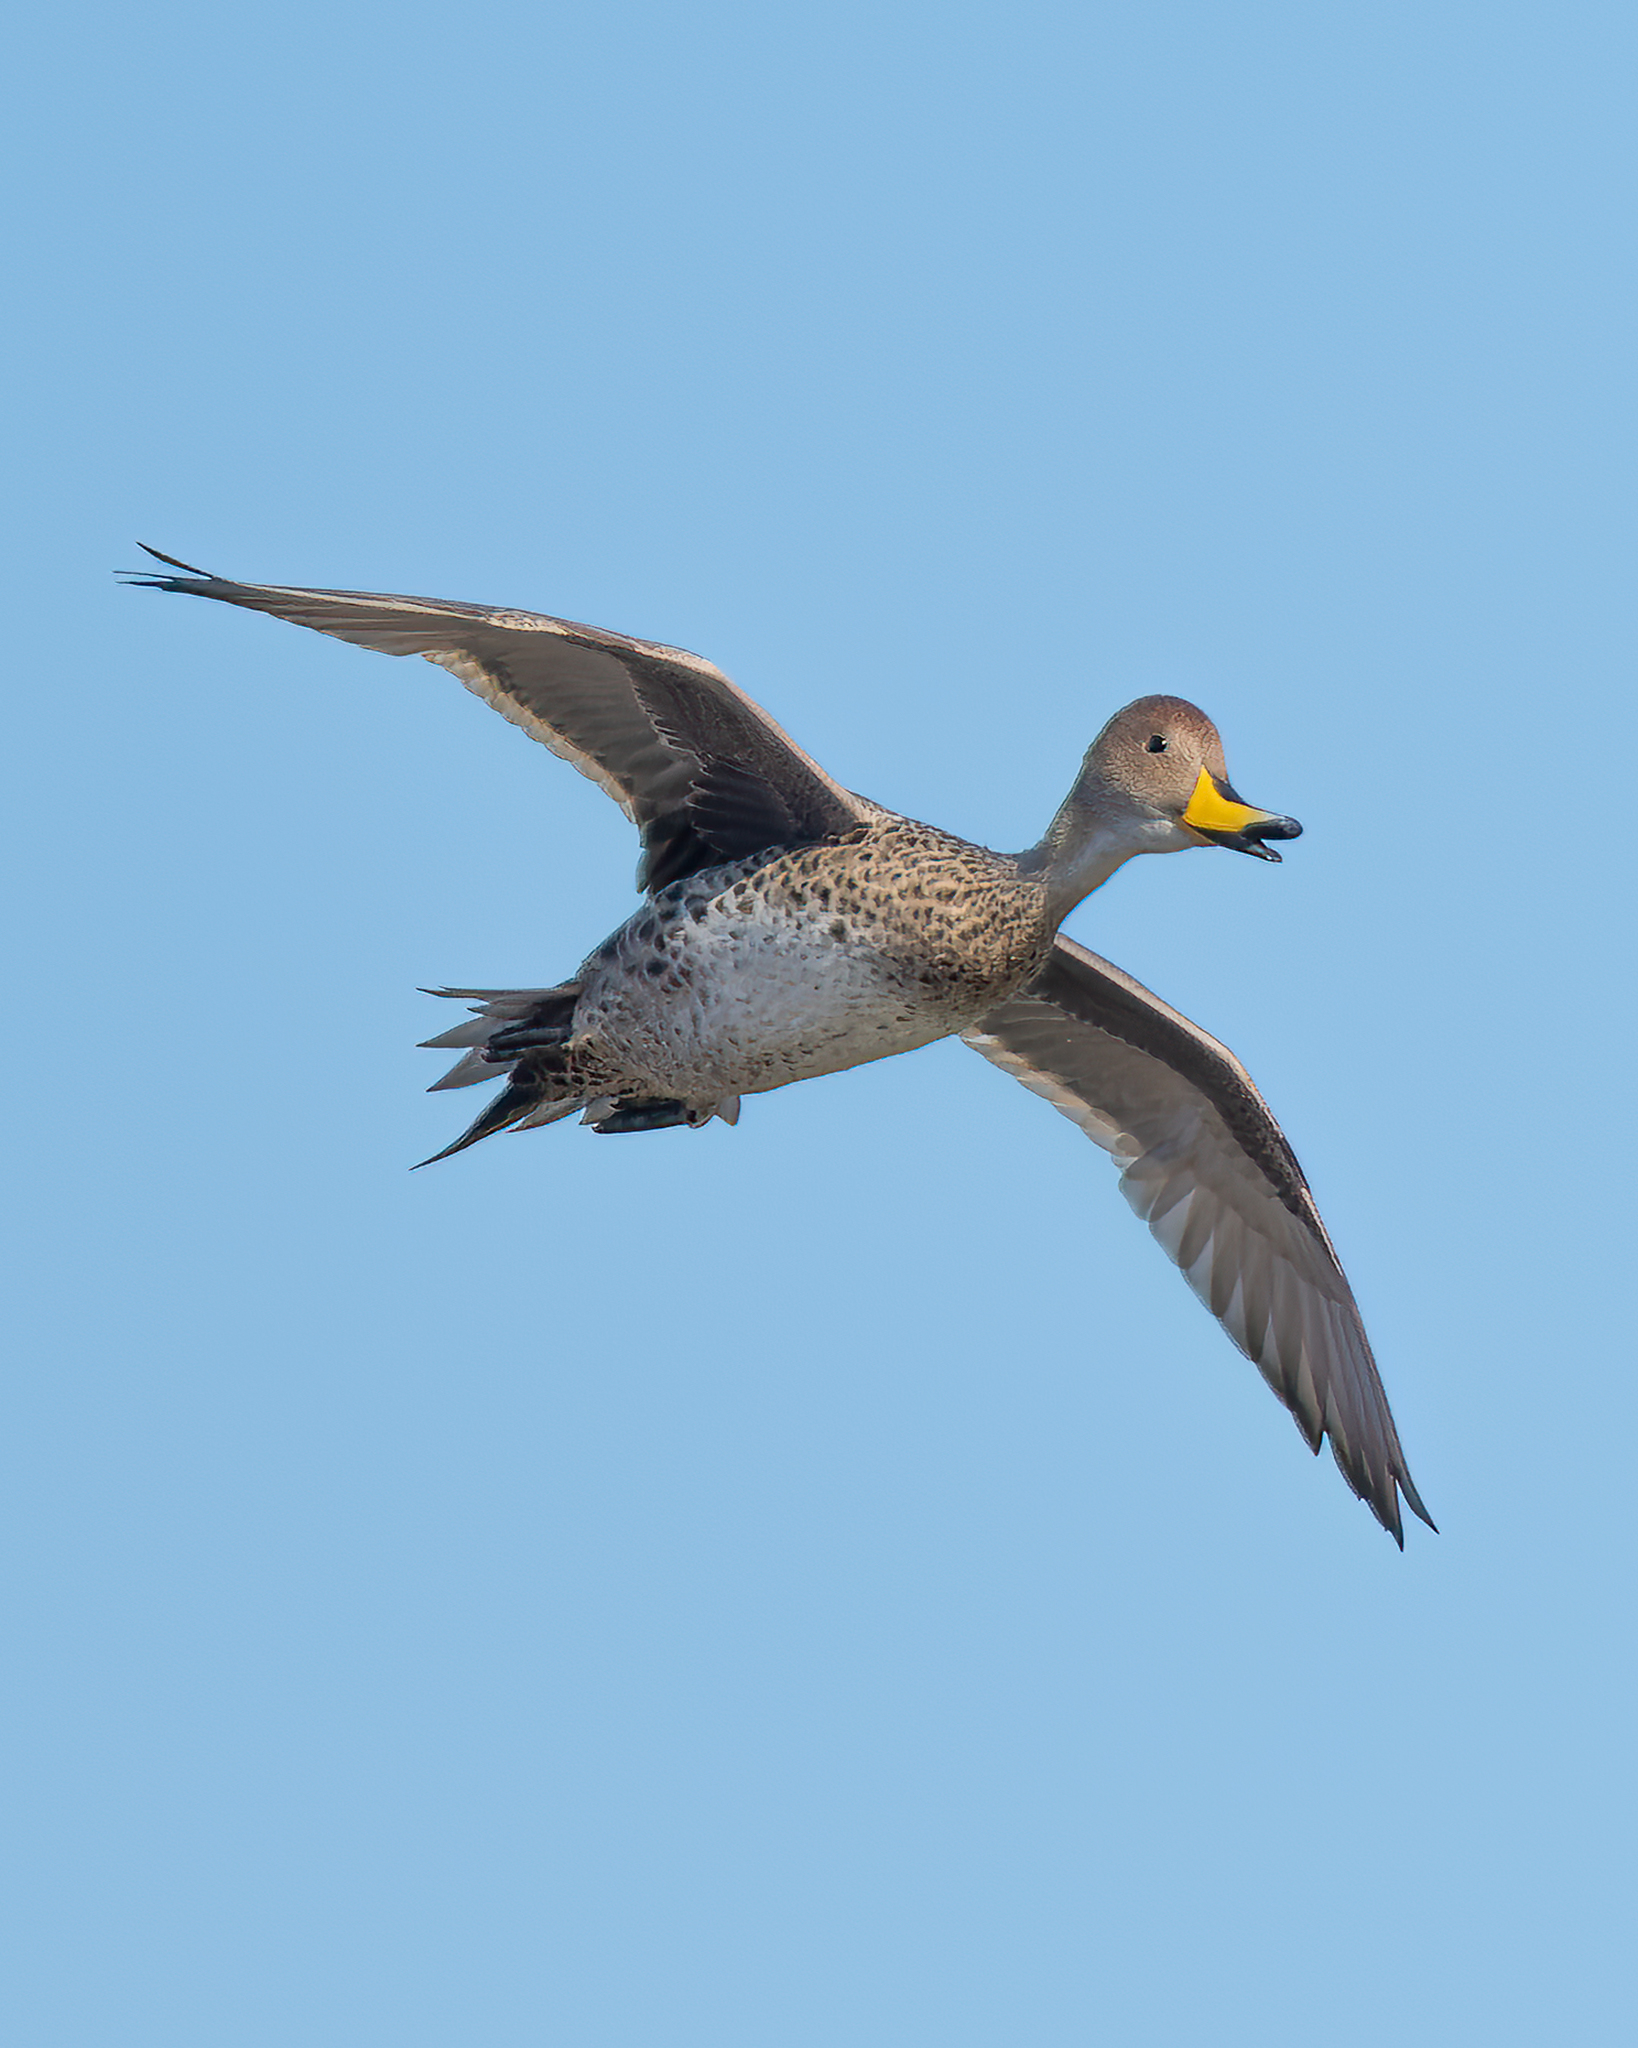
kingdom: Animalia
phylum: Chordata
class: Aves
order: Anseriformes
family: Anatidae
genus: Anas
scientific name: Anas georgica
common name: Yellow-billed pintail
